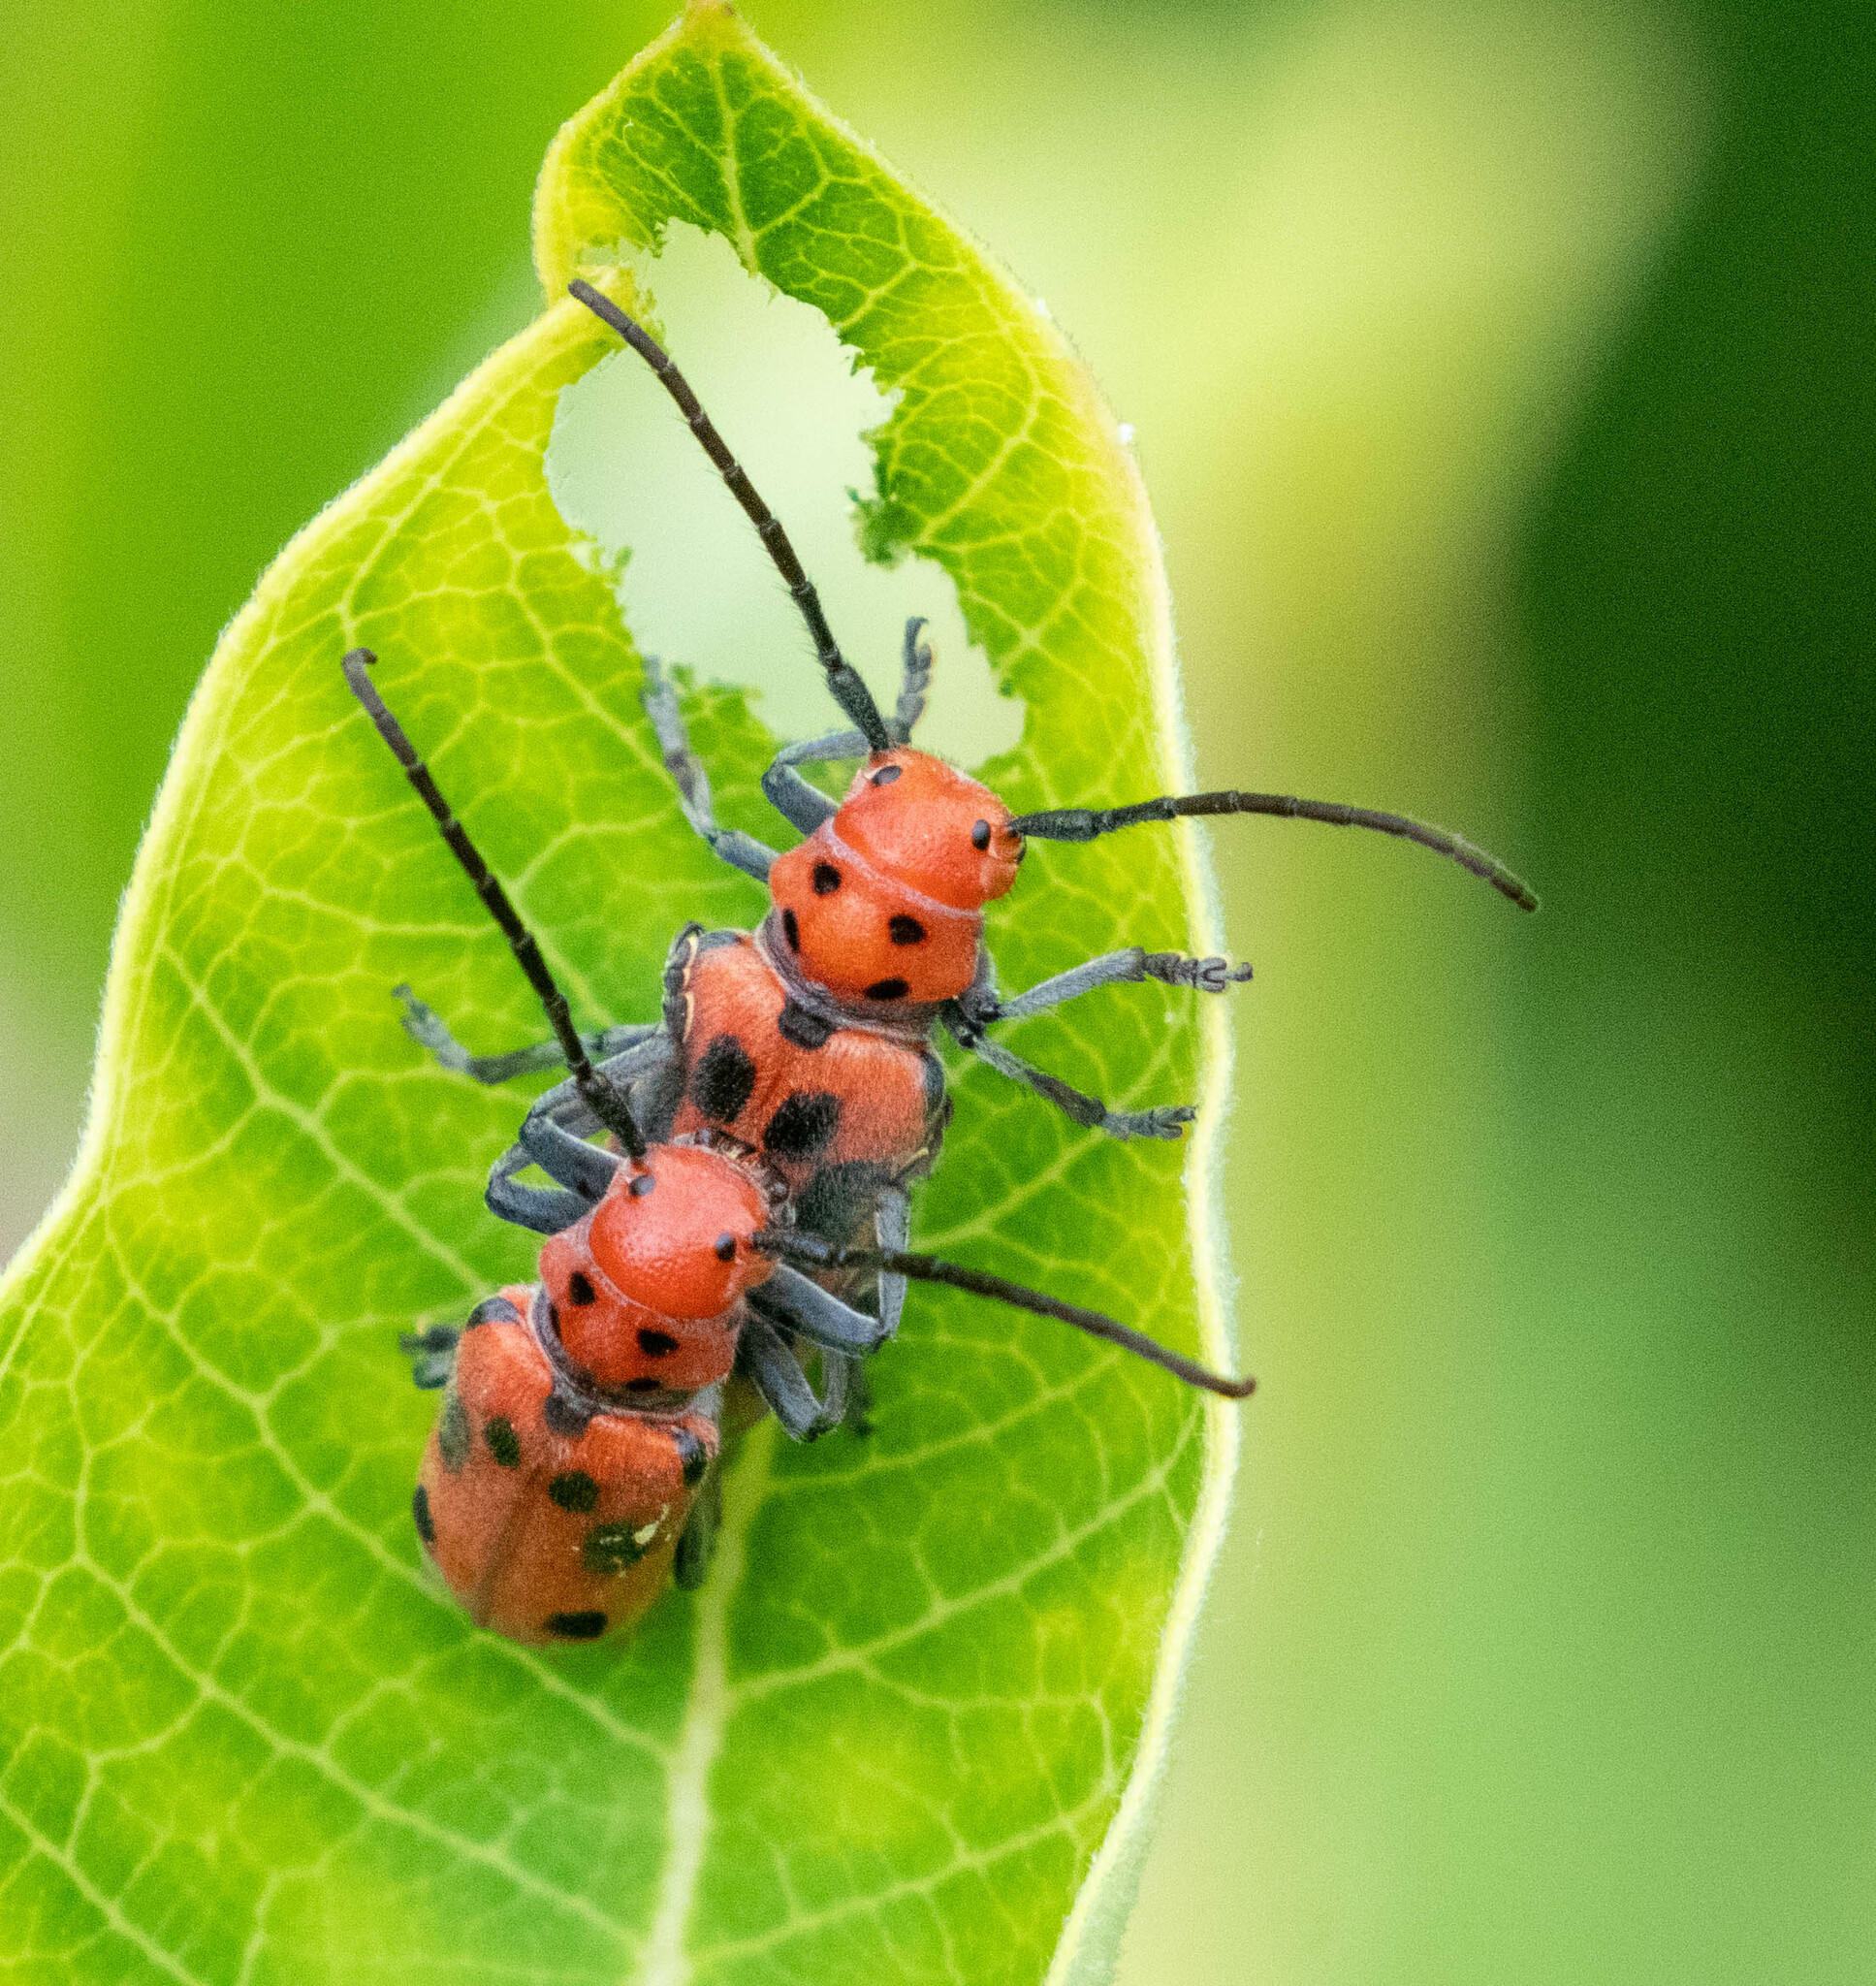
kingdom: Animalia
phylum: Arthropoda
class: Insecta
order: Coleoptera
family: Cerambycidae
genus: Tetraopes
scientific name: Tetraopes tetrophthalmus
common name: Red milkweed beetle
